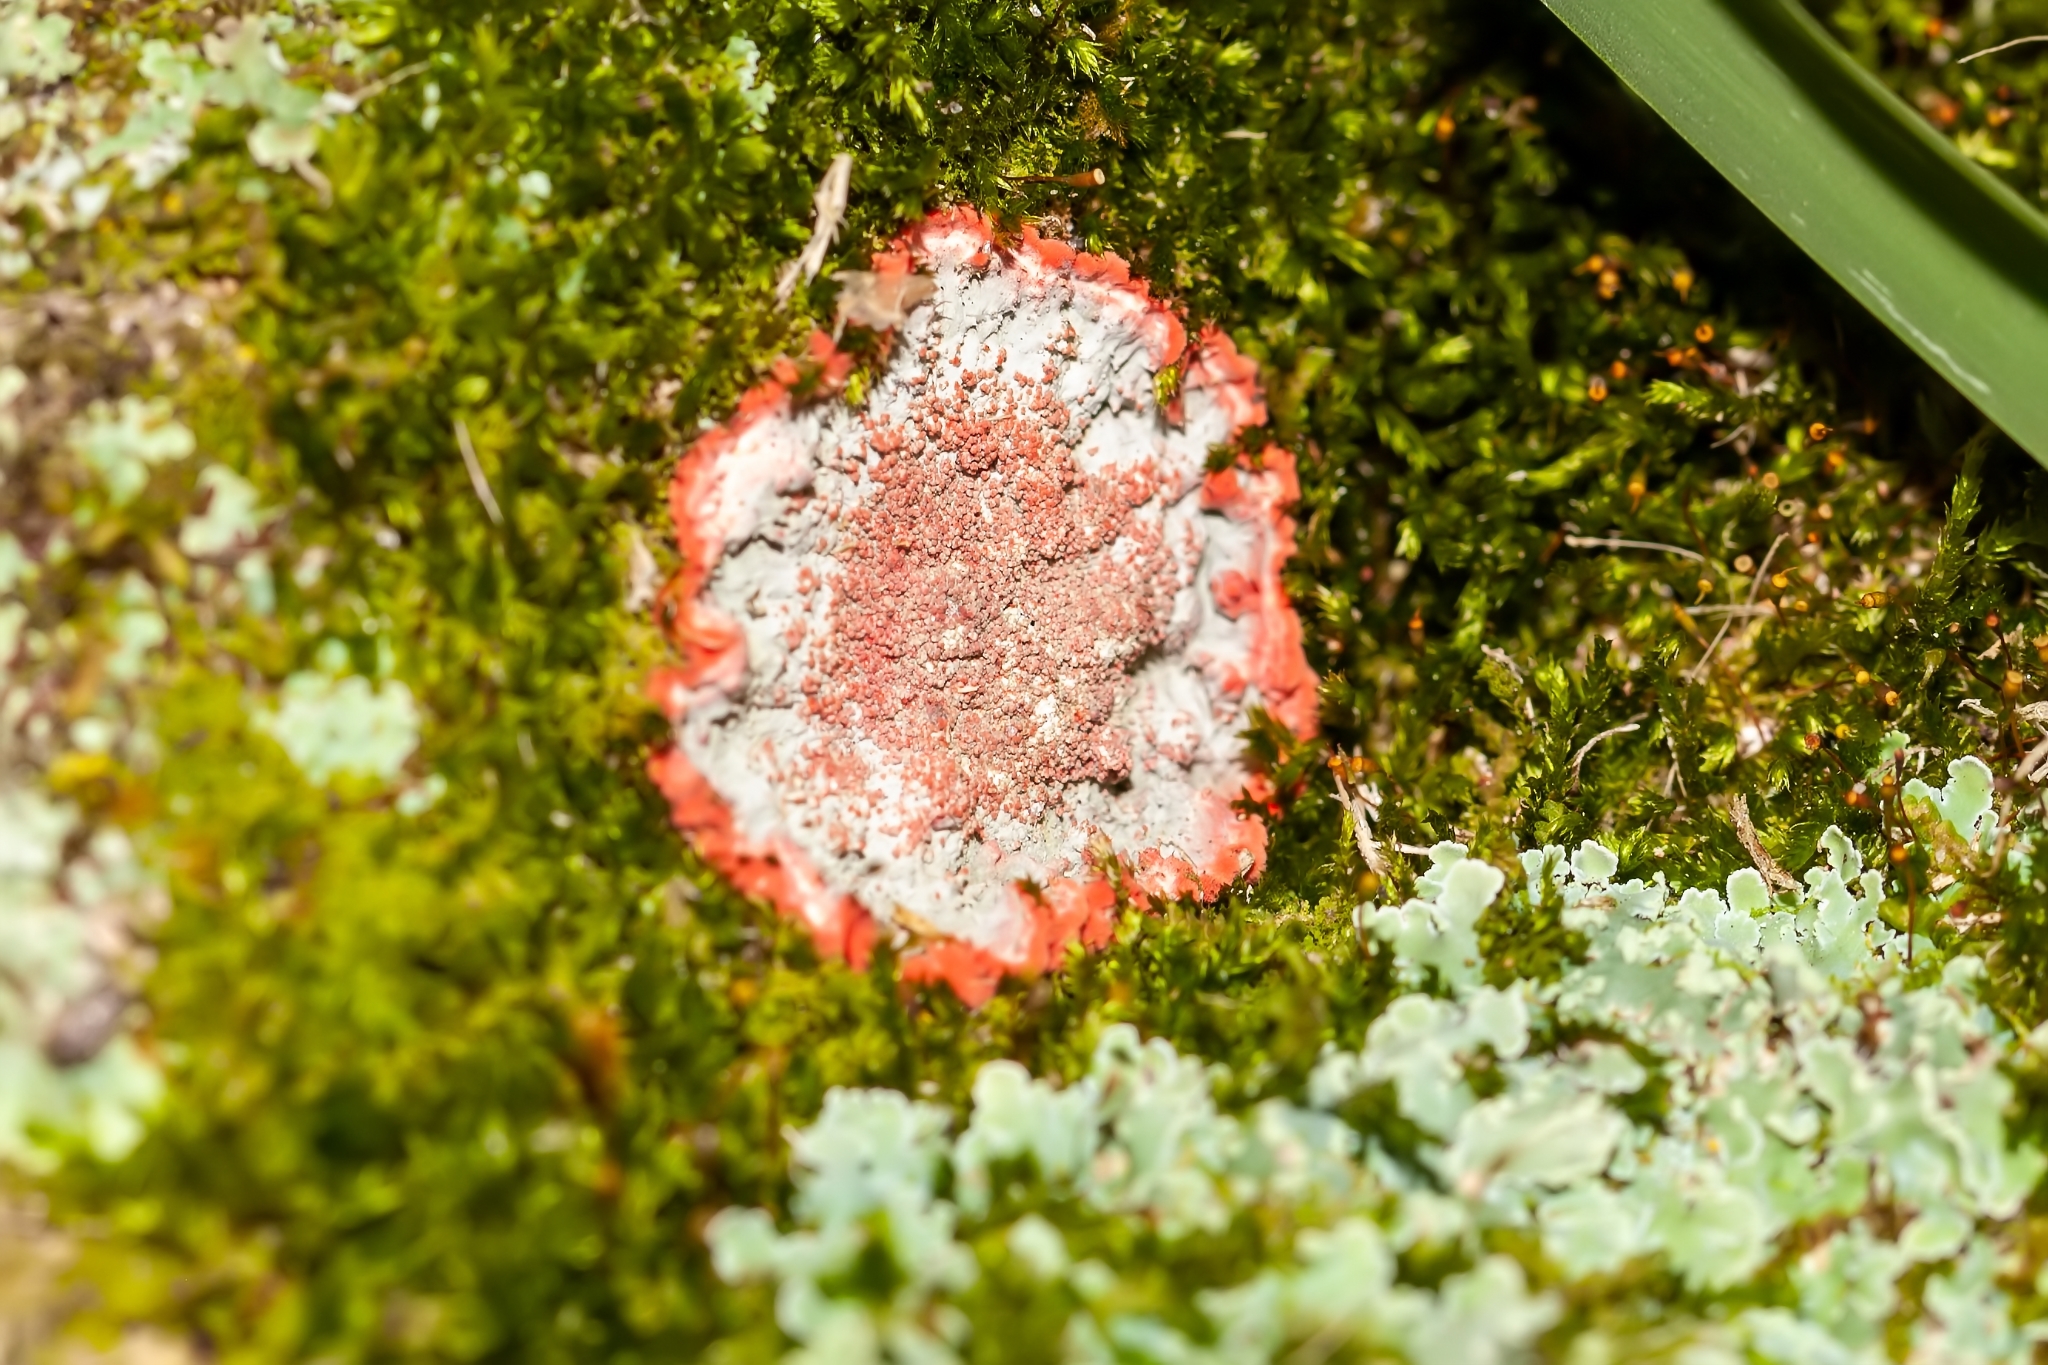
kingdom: Fungi
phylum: Ascomycota
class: Arthoniomycetes
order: Arthoniales
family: Arthoniaceae
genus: Herpothallon
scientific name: Herpothallon rubrocinctum
